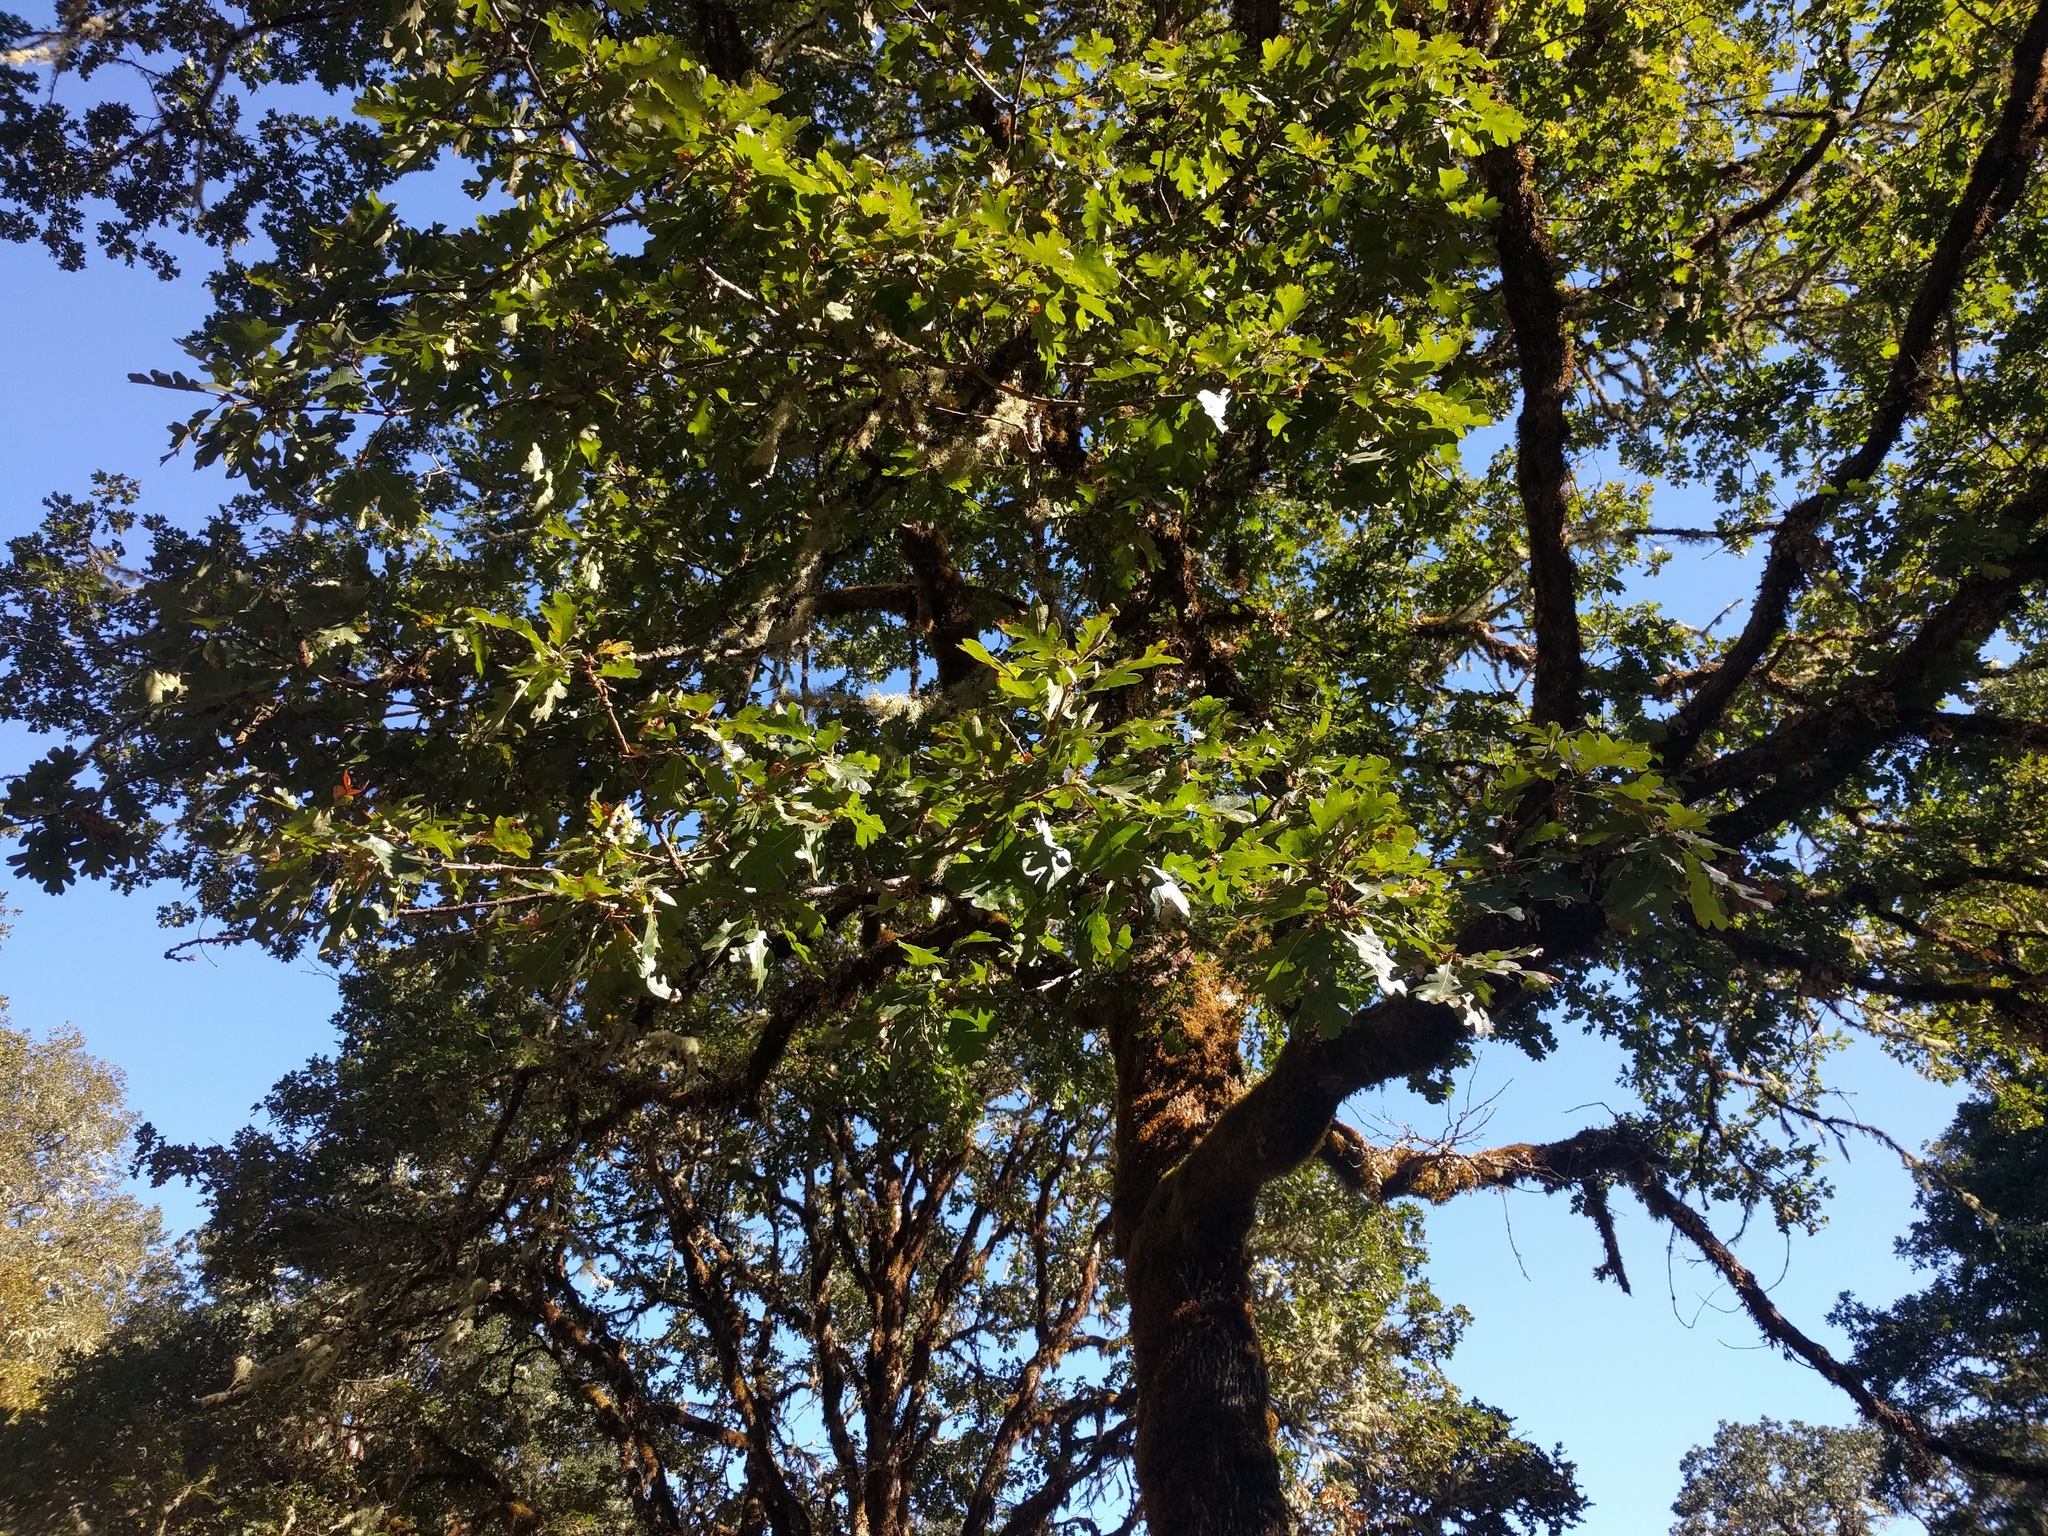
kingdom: Plantae
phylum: Tracheophyta
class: Magnoliopsida
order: Fagales
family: Fagaceae
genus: Quercus
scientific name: Quercus garryana
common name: Garry oak
